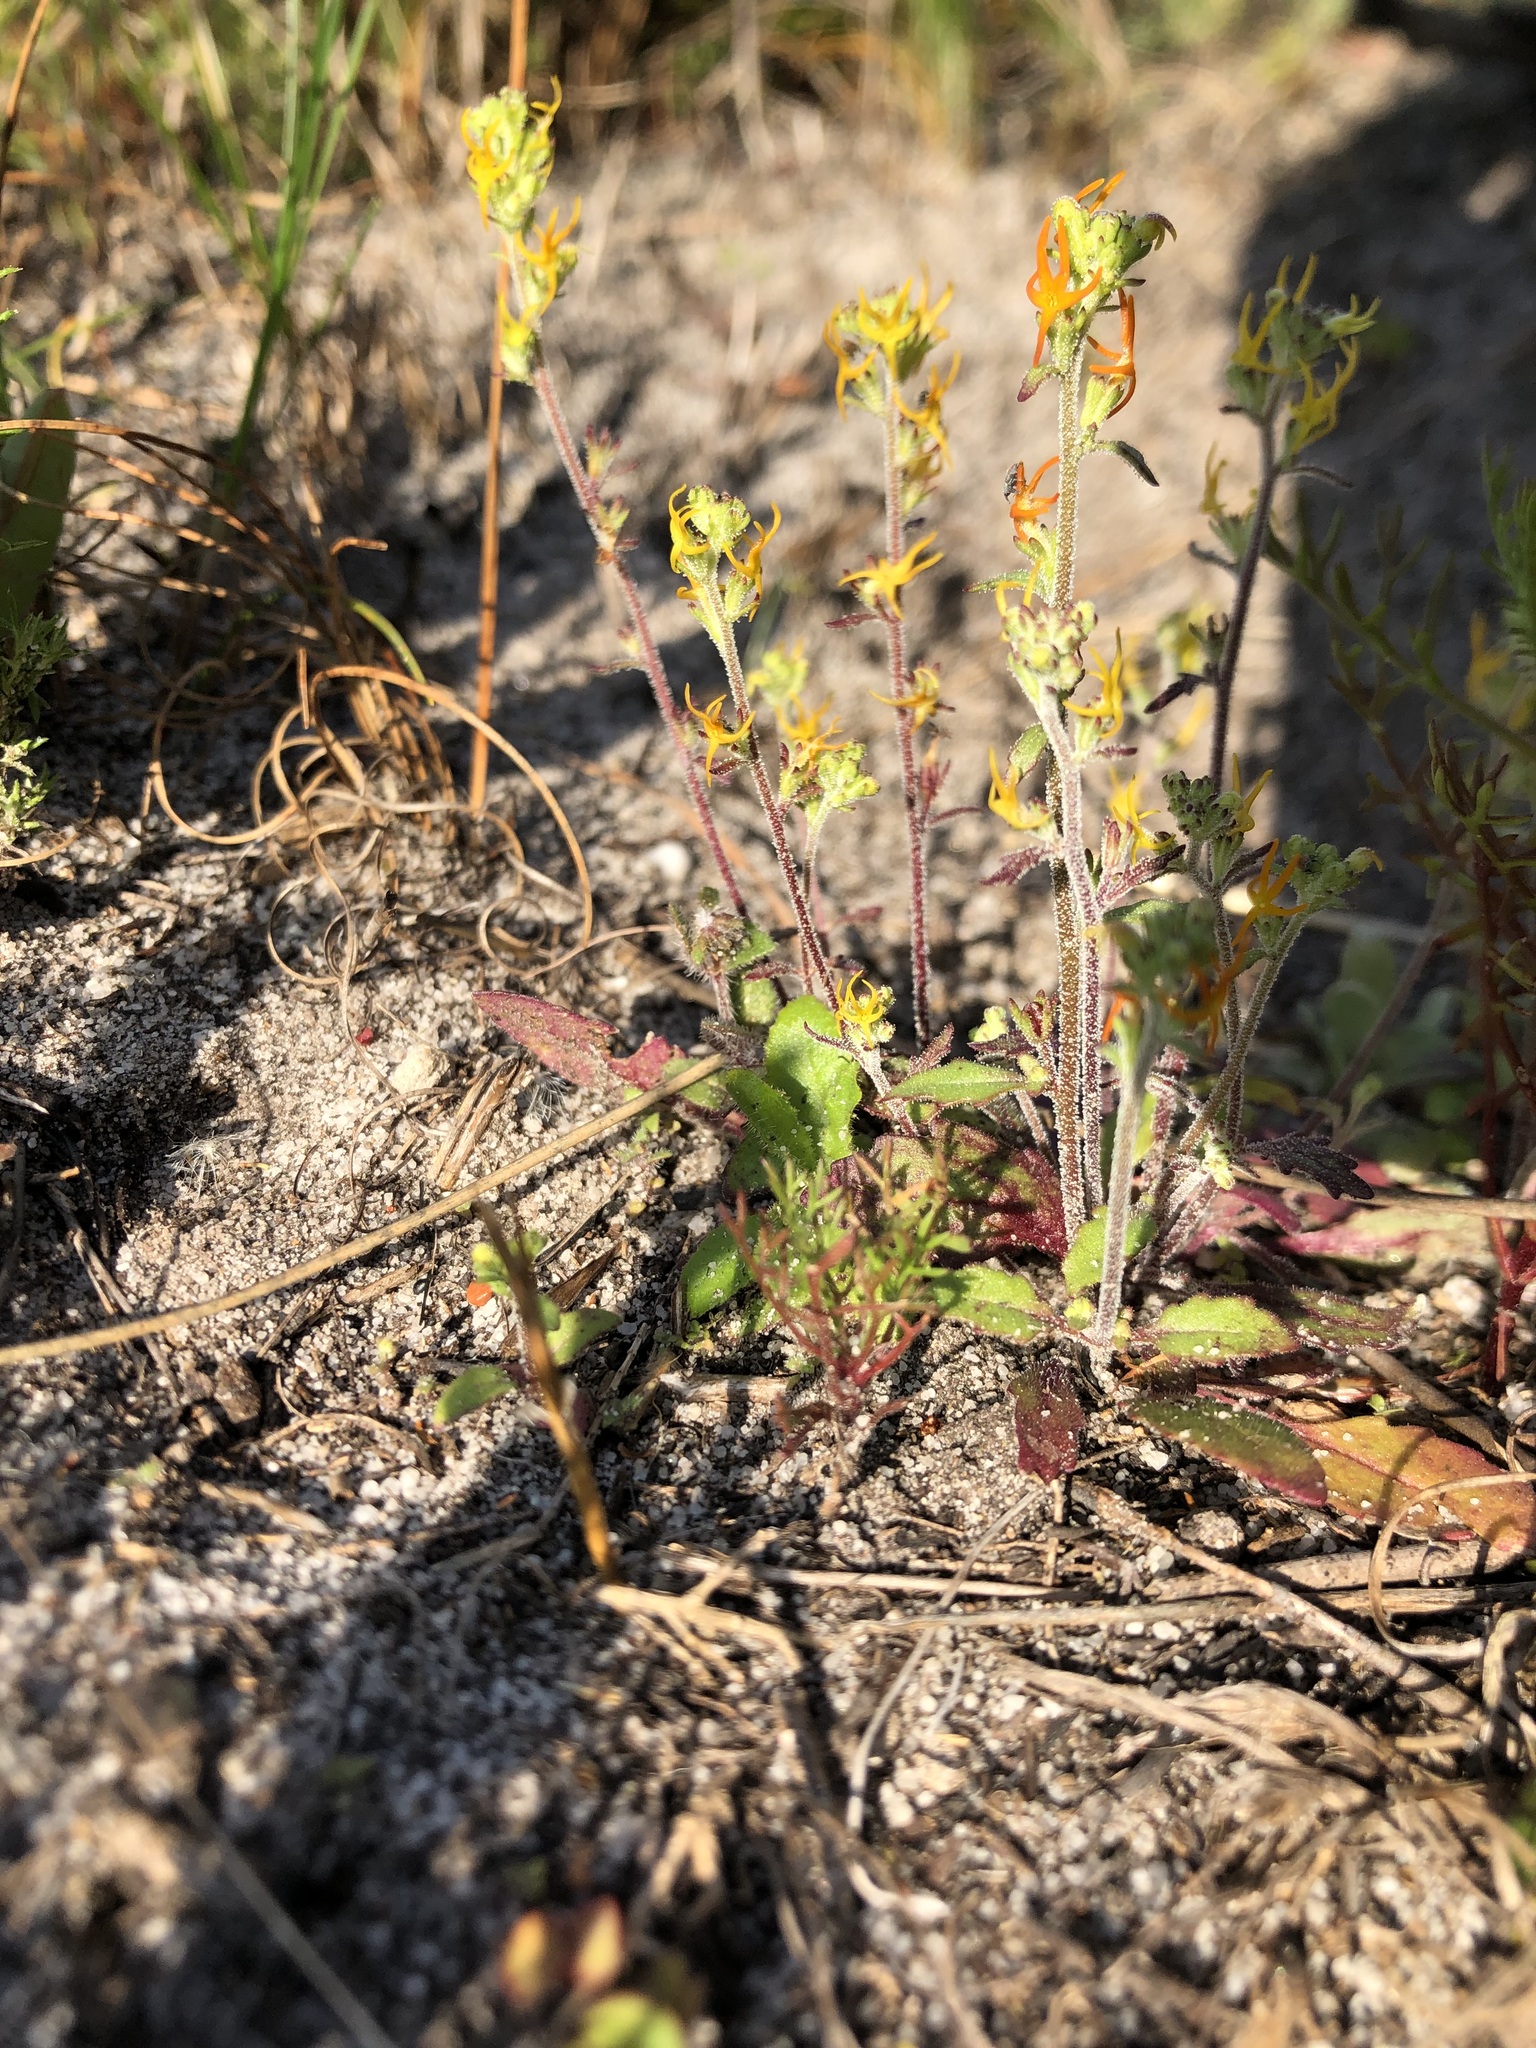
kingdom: Plantae
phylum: Tracheophyta
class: Magnoliopsida
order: Lamiales
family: Scrophulariaceae
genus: Manulea
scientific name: Manulea cheiranthus
